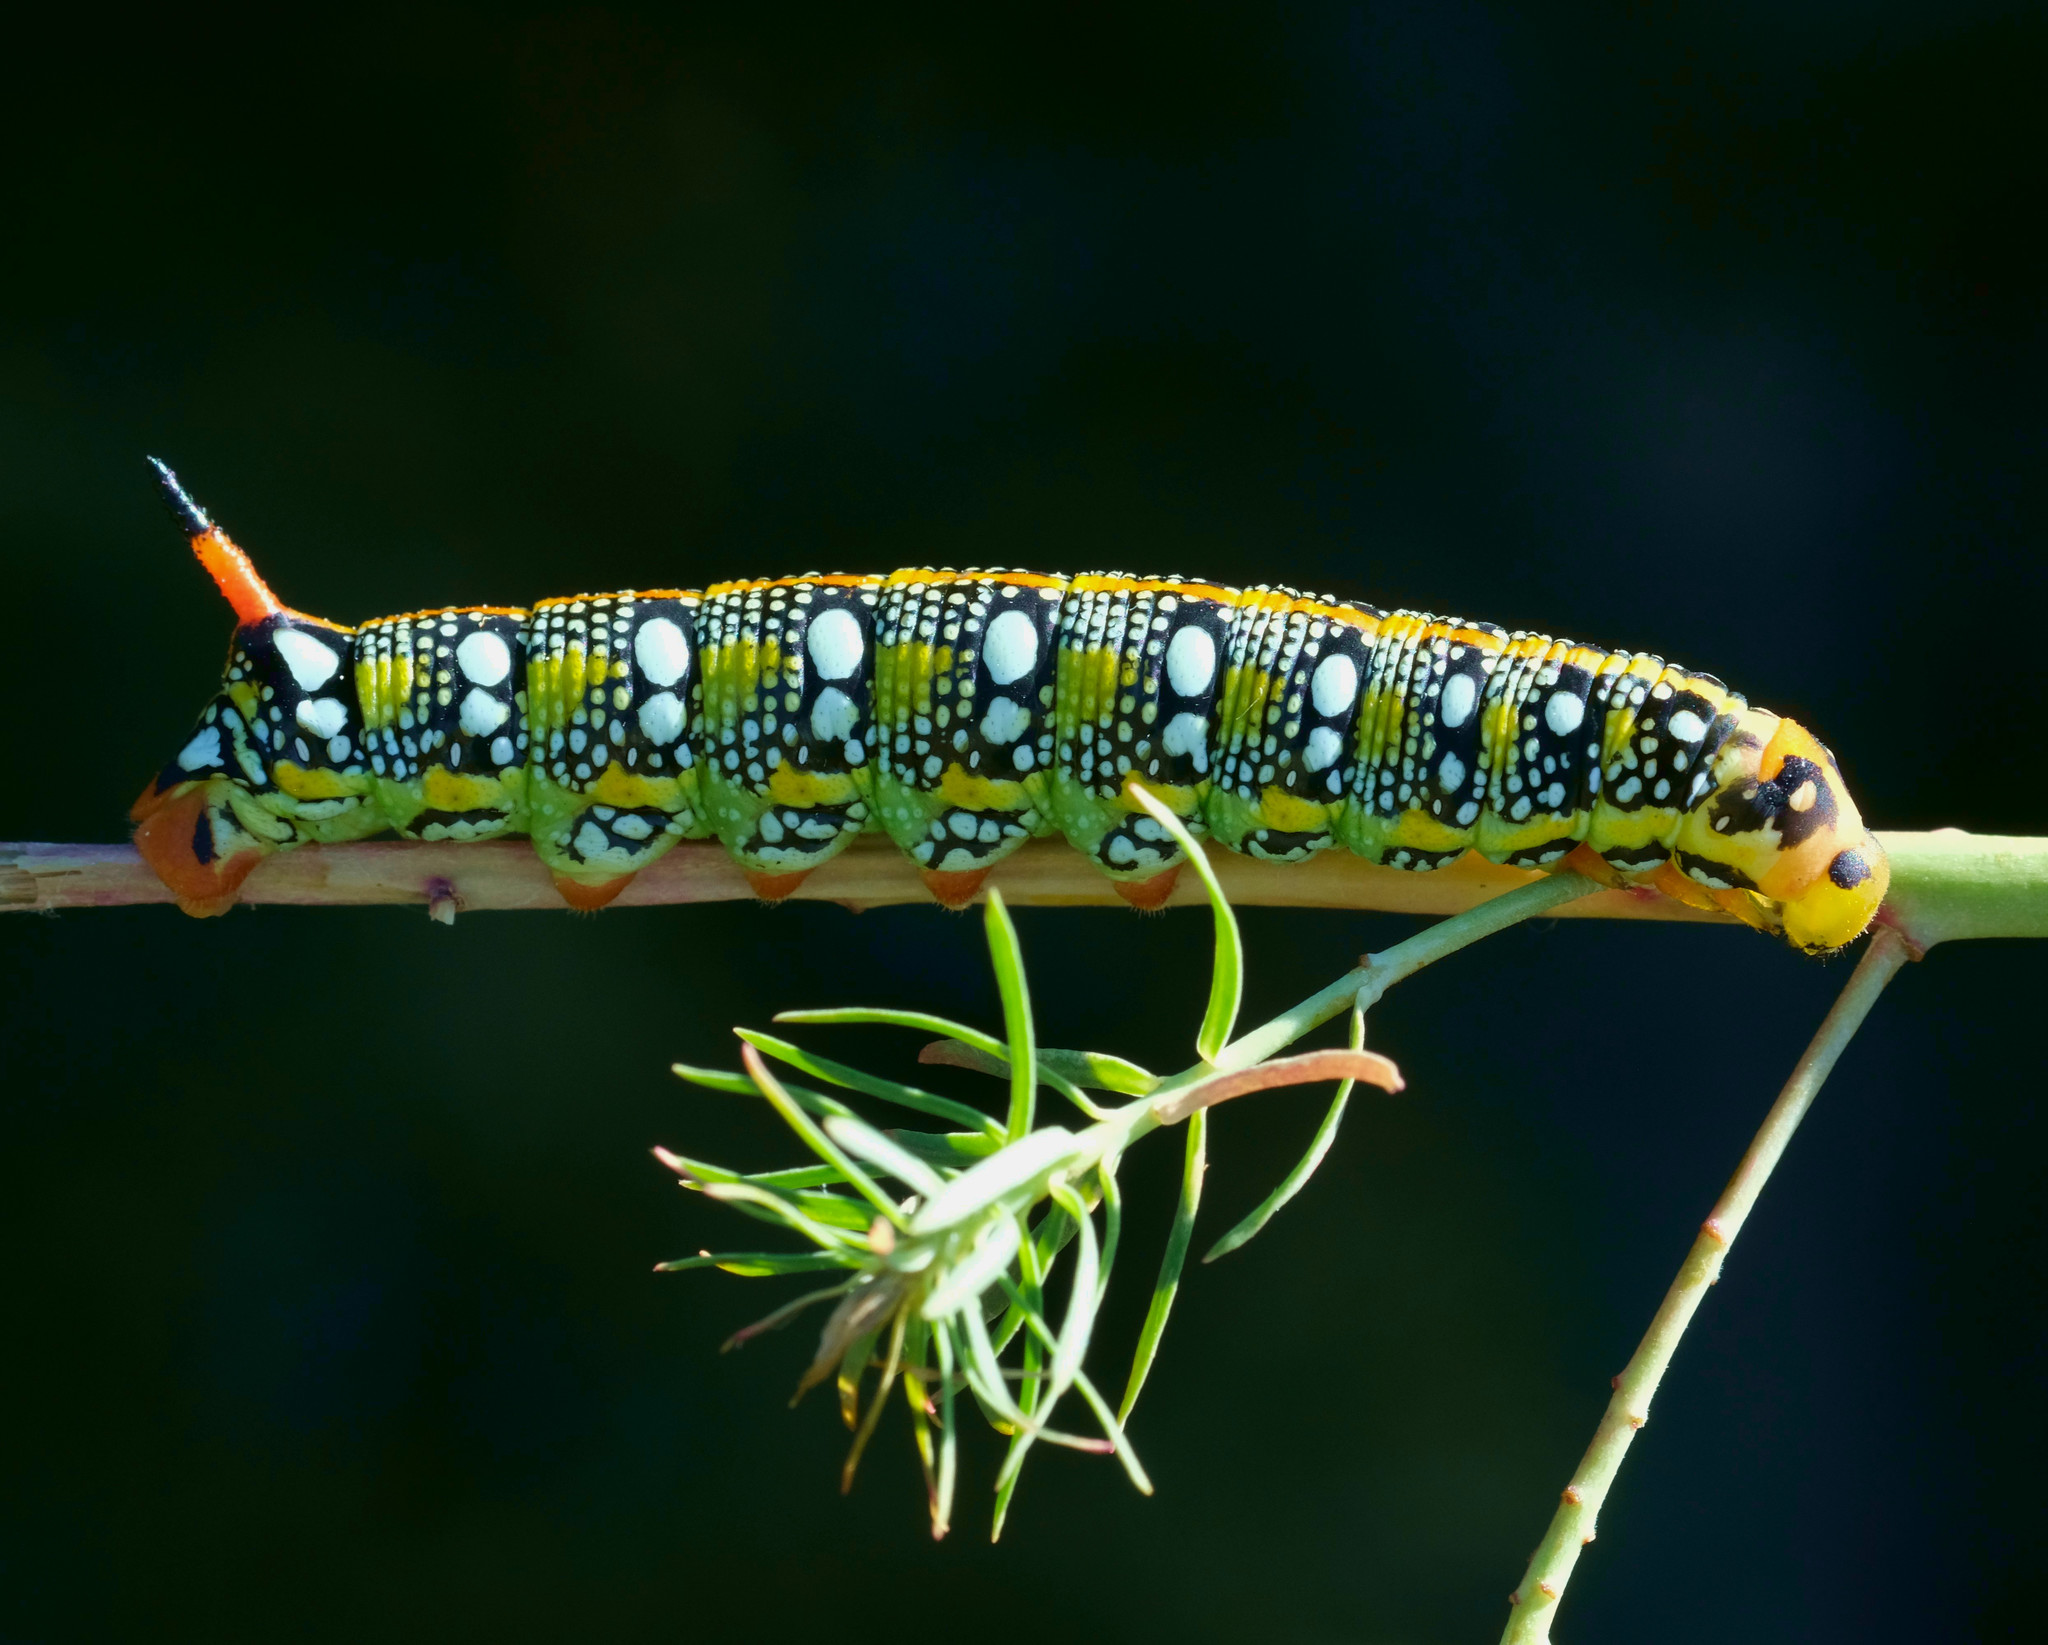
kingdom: Animalia
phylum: Arthropoda
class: Insecta
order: Lepidoptera
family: Sphingidae
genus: Hyles
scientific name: Hyles euphorbiae
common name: Spurge hawk-moth
